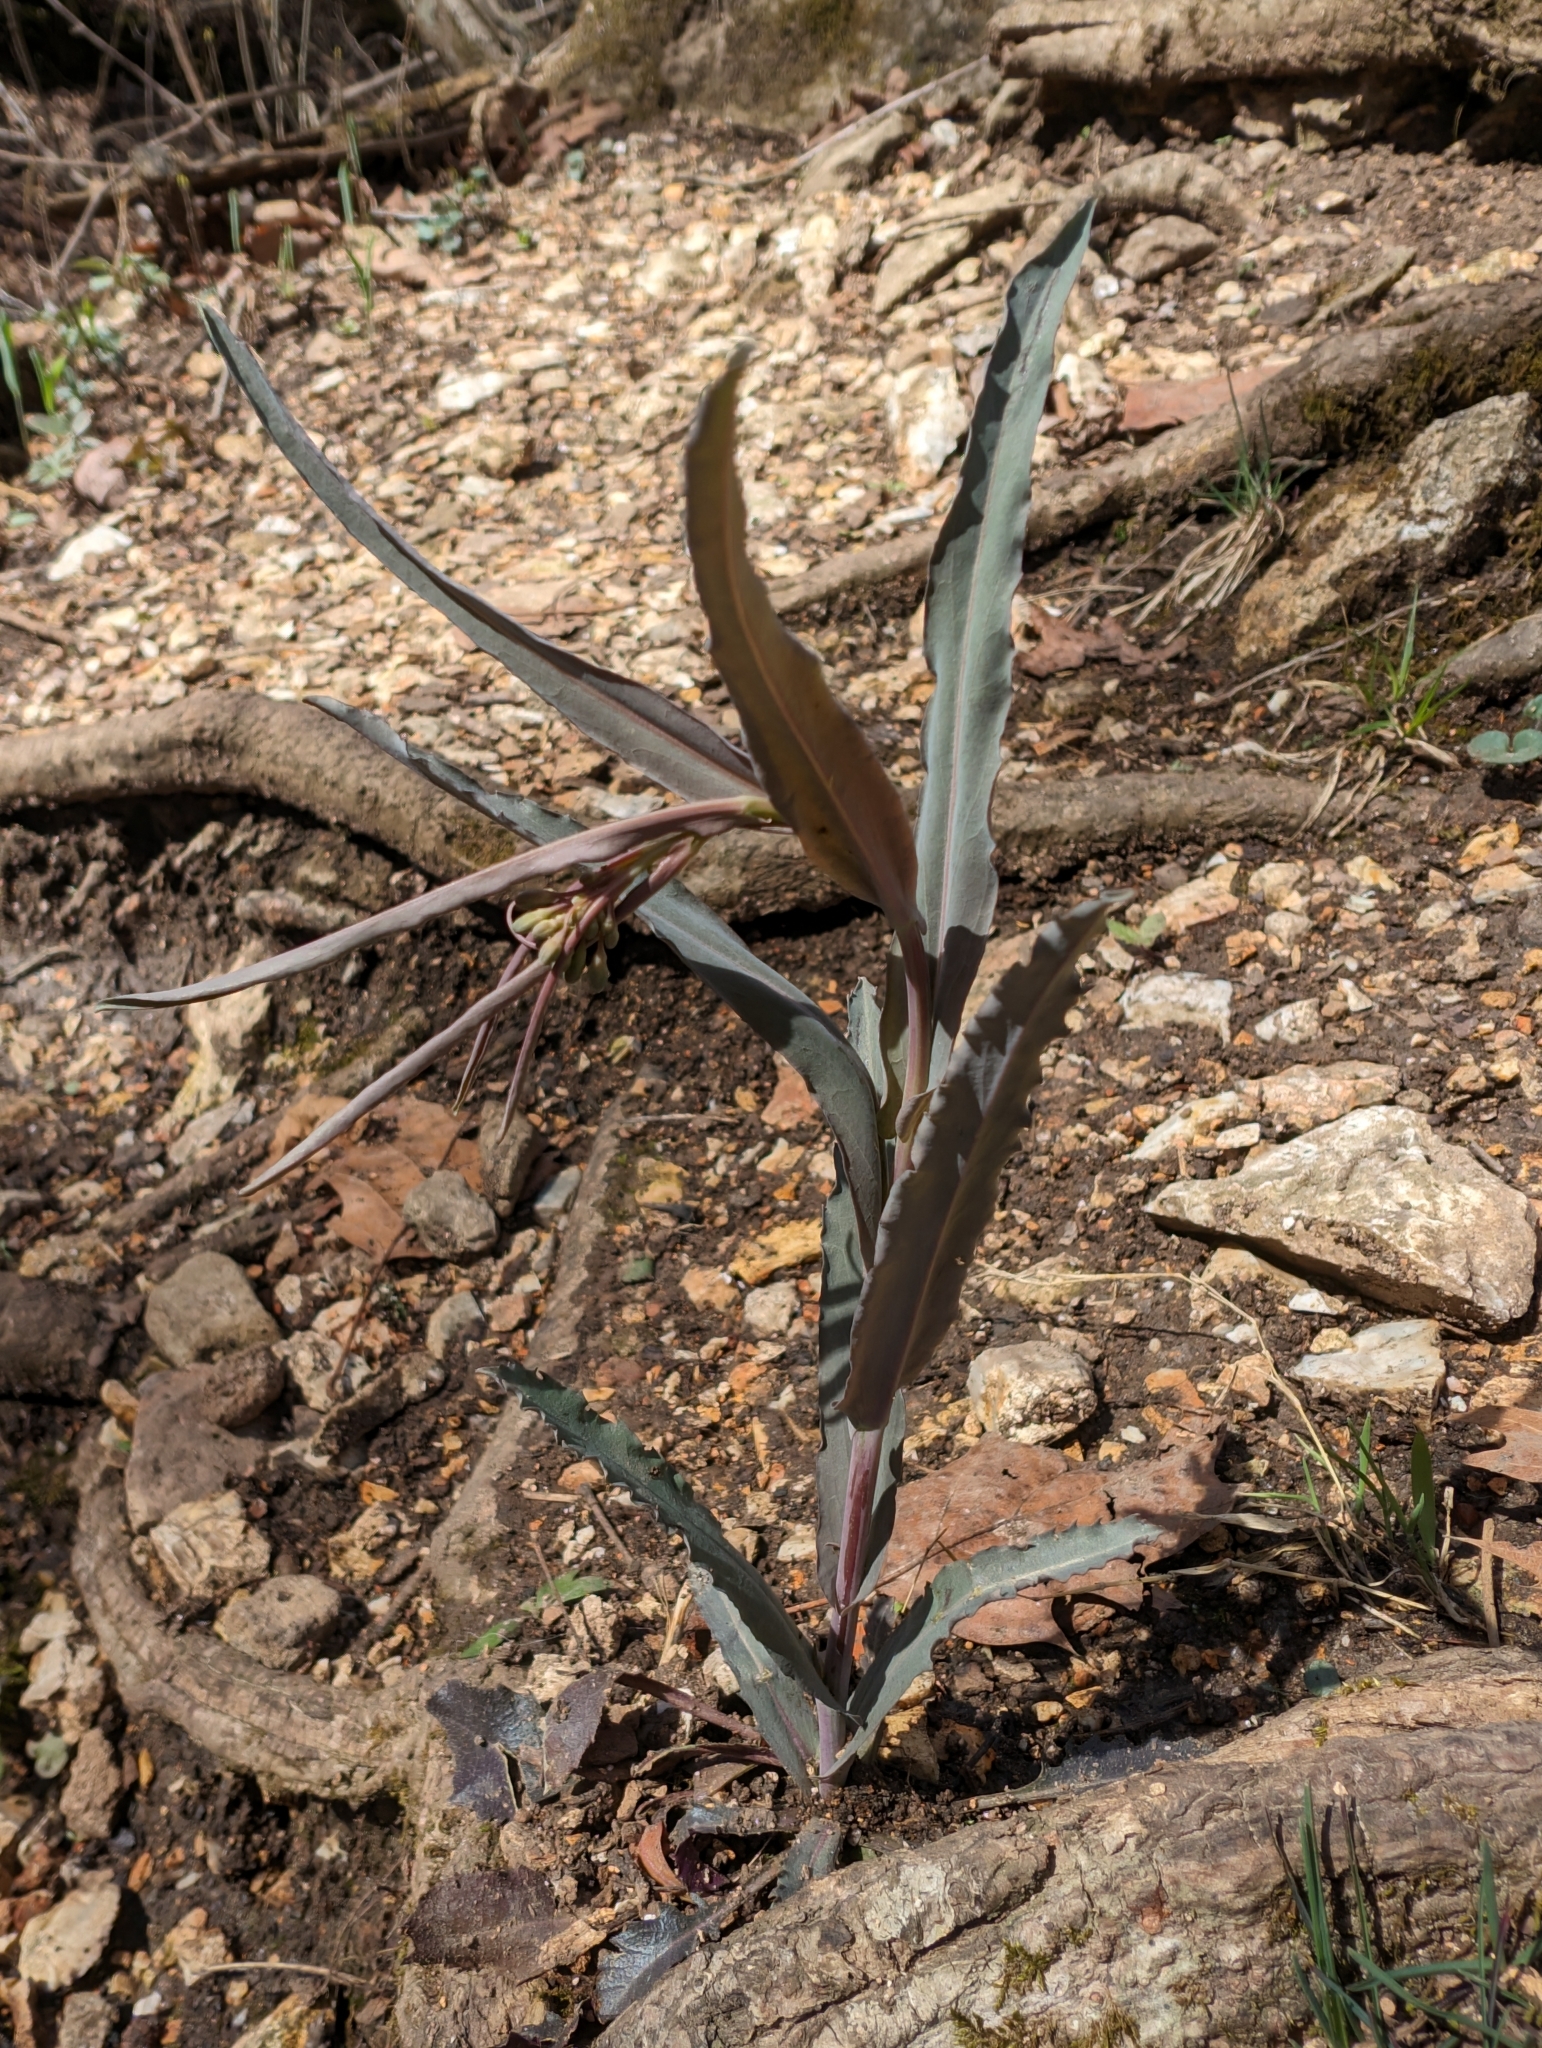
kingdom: Plantae
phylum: Tracheophyta
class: Magnoliopsida
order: Brassicales
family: Brassicaceae
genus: Borodinia
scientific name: Borodinia laevigata
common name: Smooth rockcress
